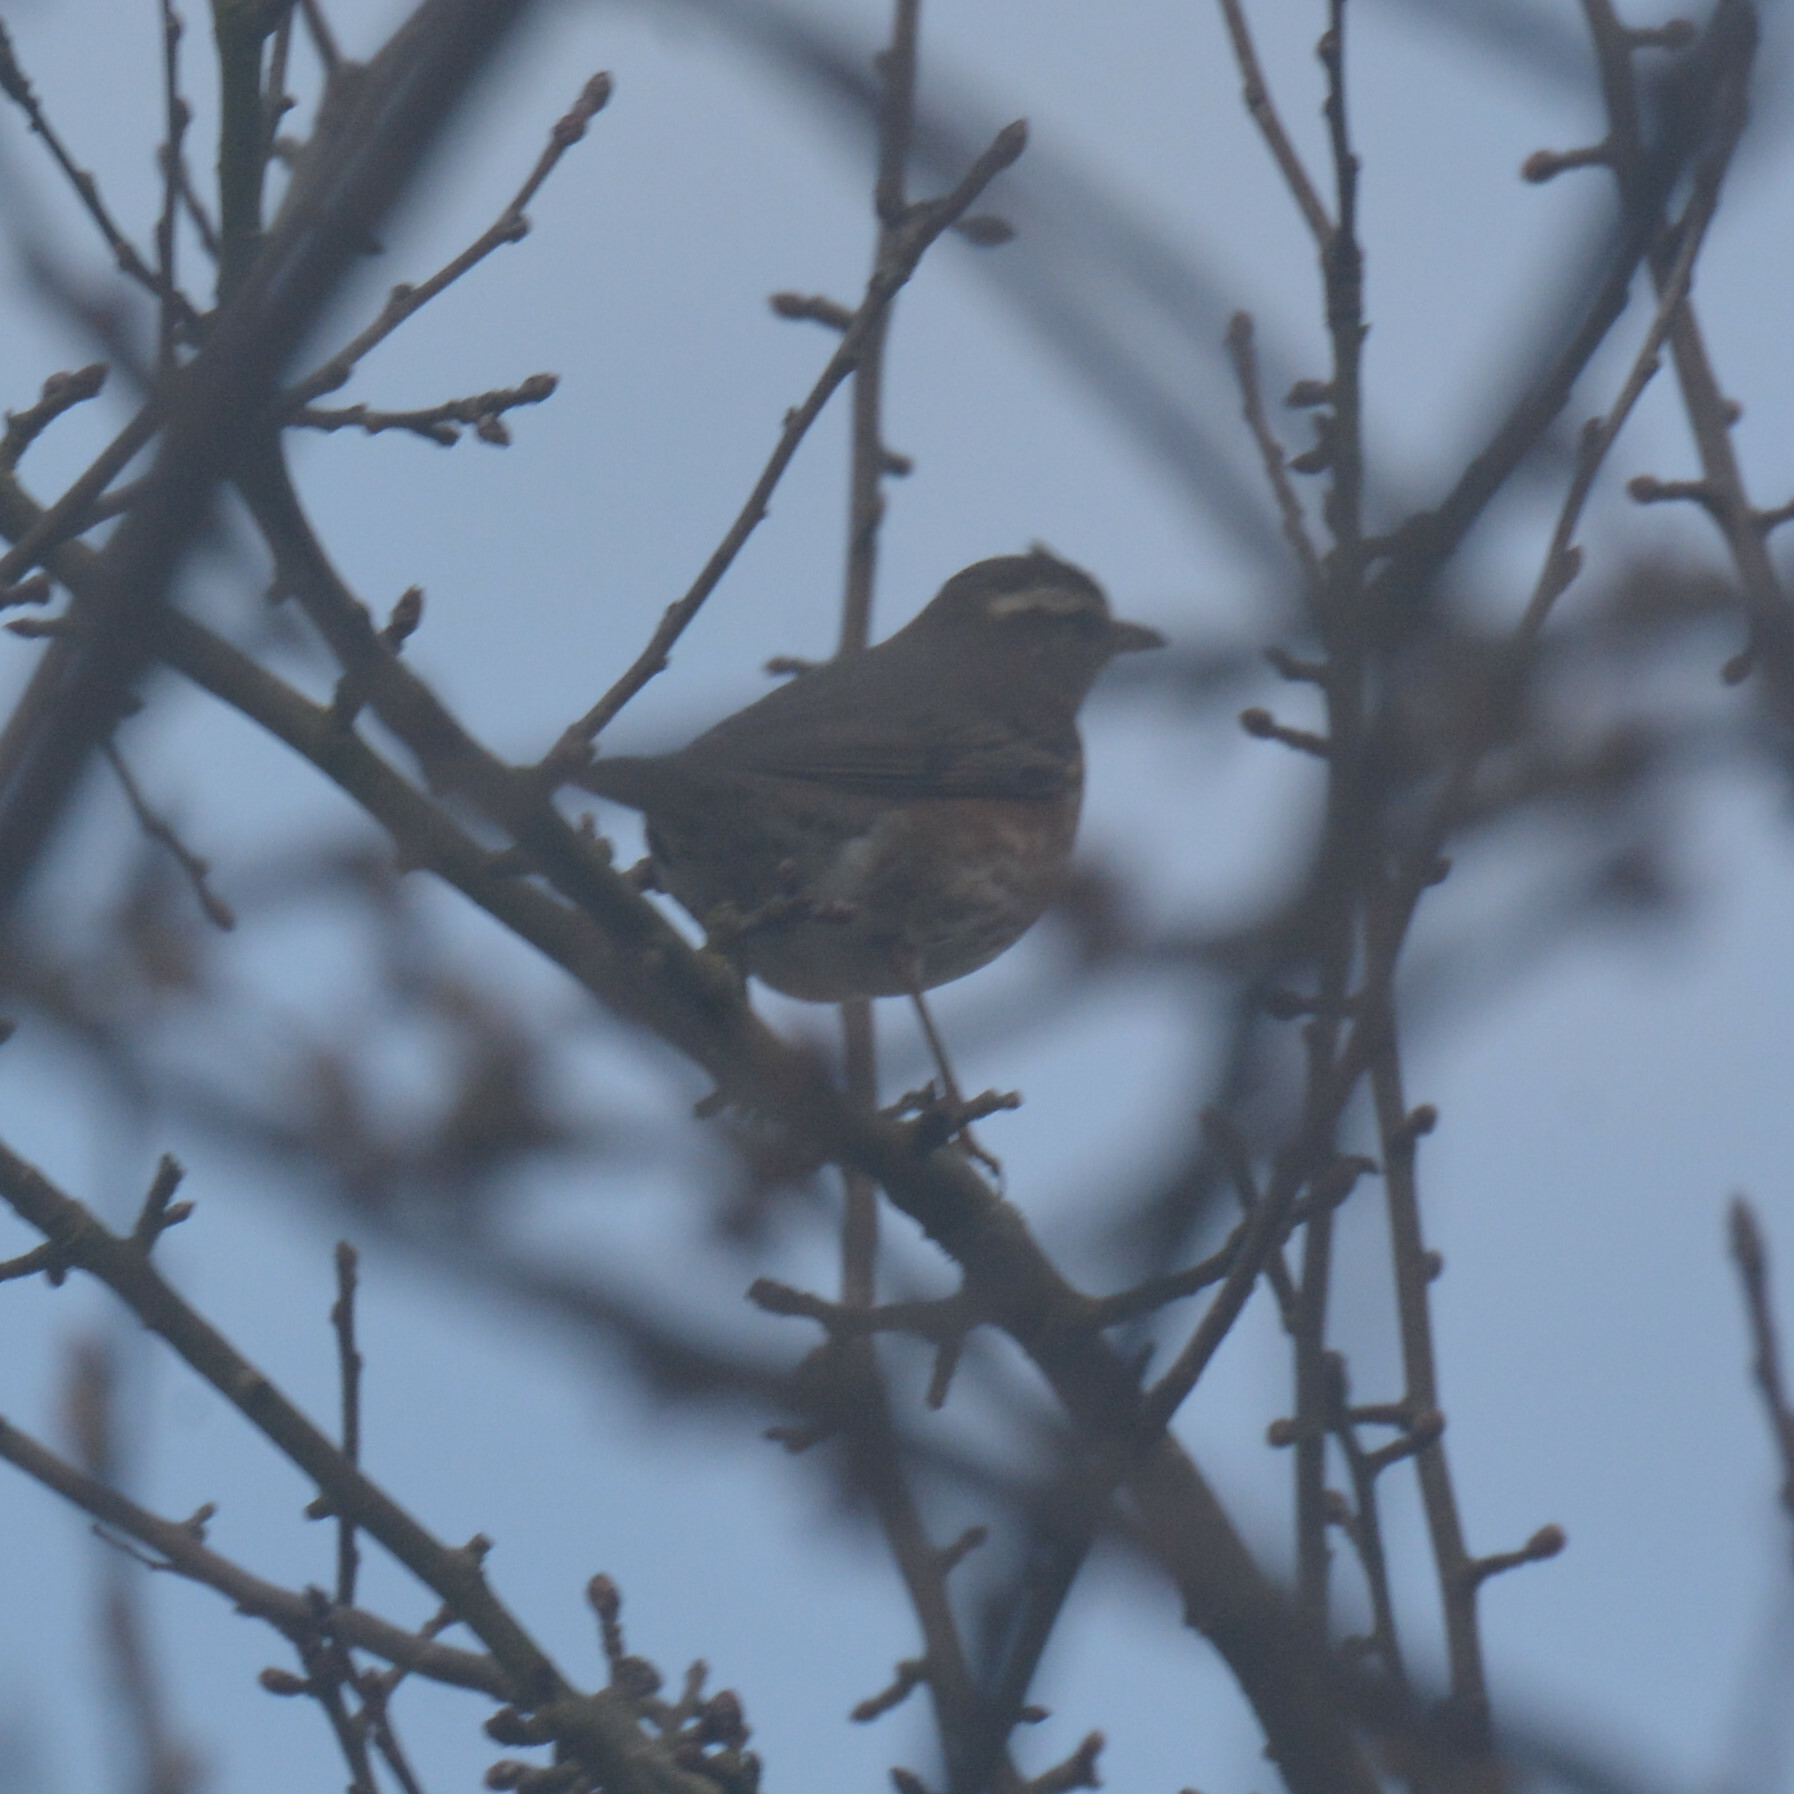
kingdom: Animalia
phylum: Chordata
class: Aves
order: Passeriformes
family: Turdidae
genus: Turdus
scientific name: Turdus iliacus
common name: Redwing
